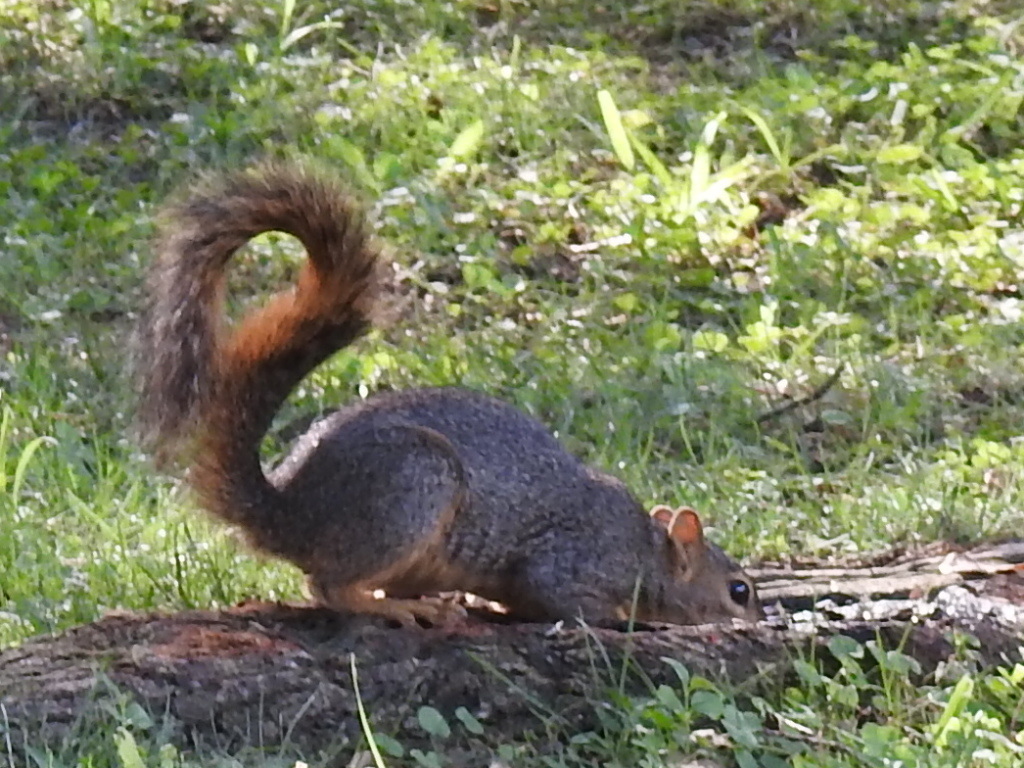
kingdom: Animalia
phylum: Chordata
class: Mammalia
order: Rodentia
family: Sciuridae
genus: Sciurus
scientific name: Sciurus niger
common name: Fox squirrel
